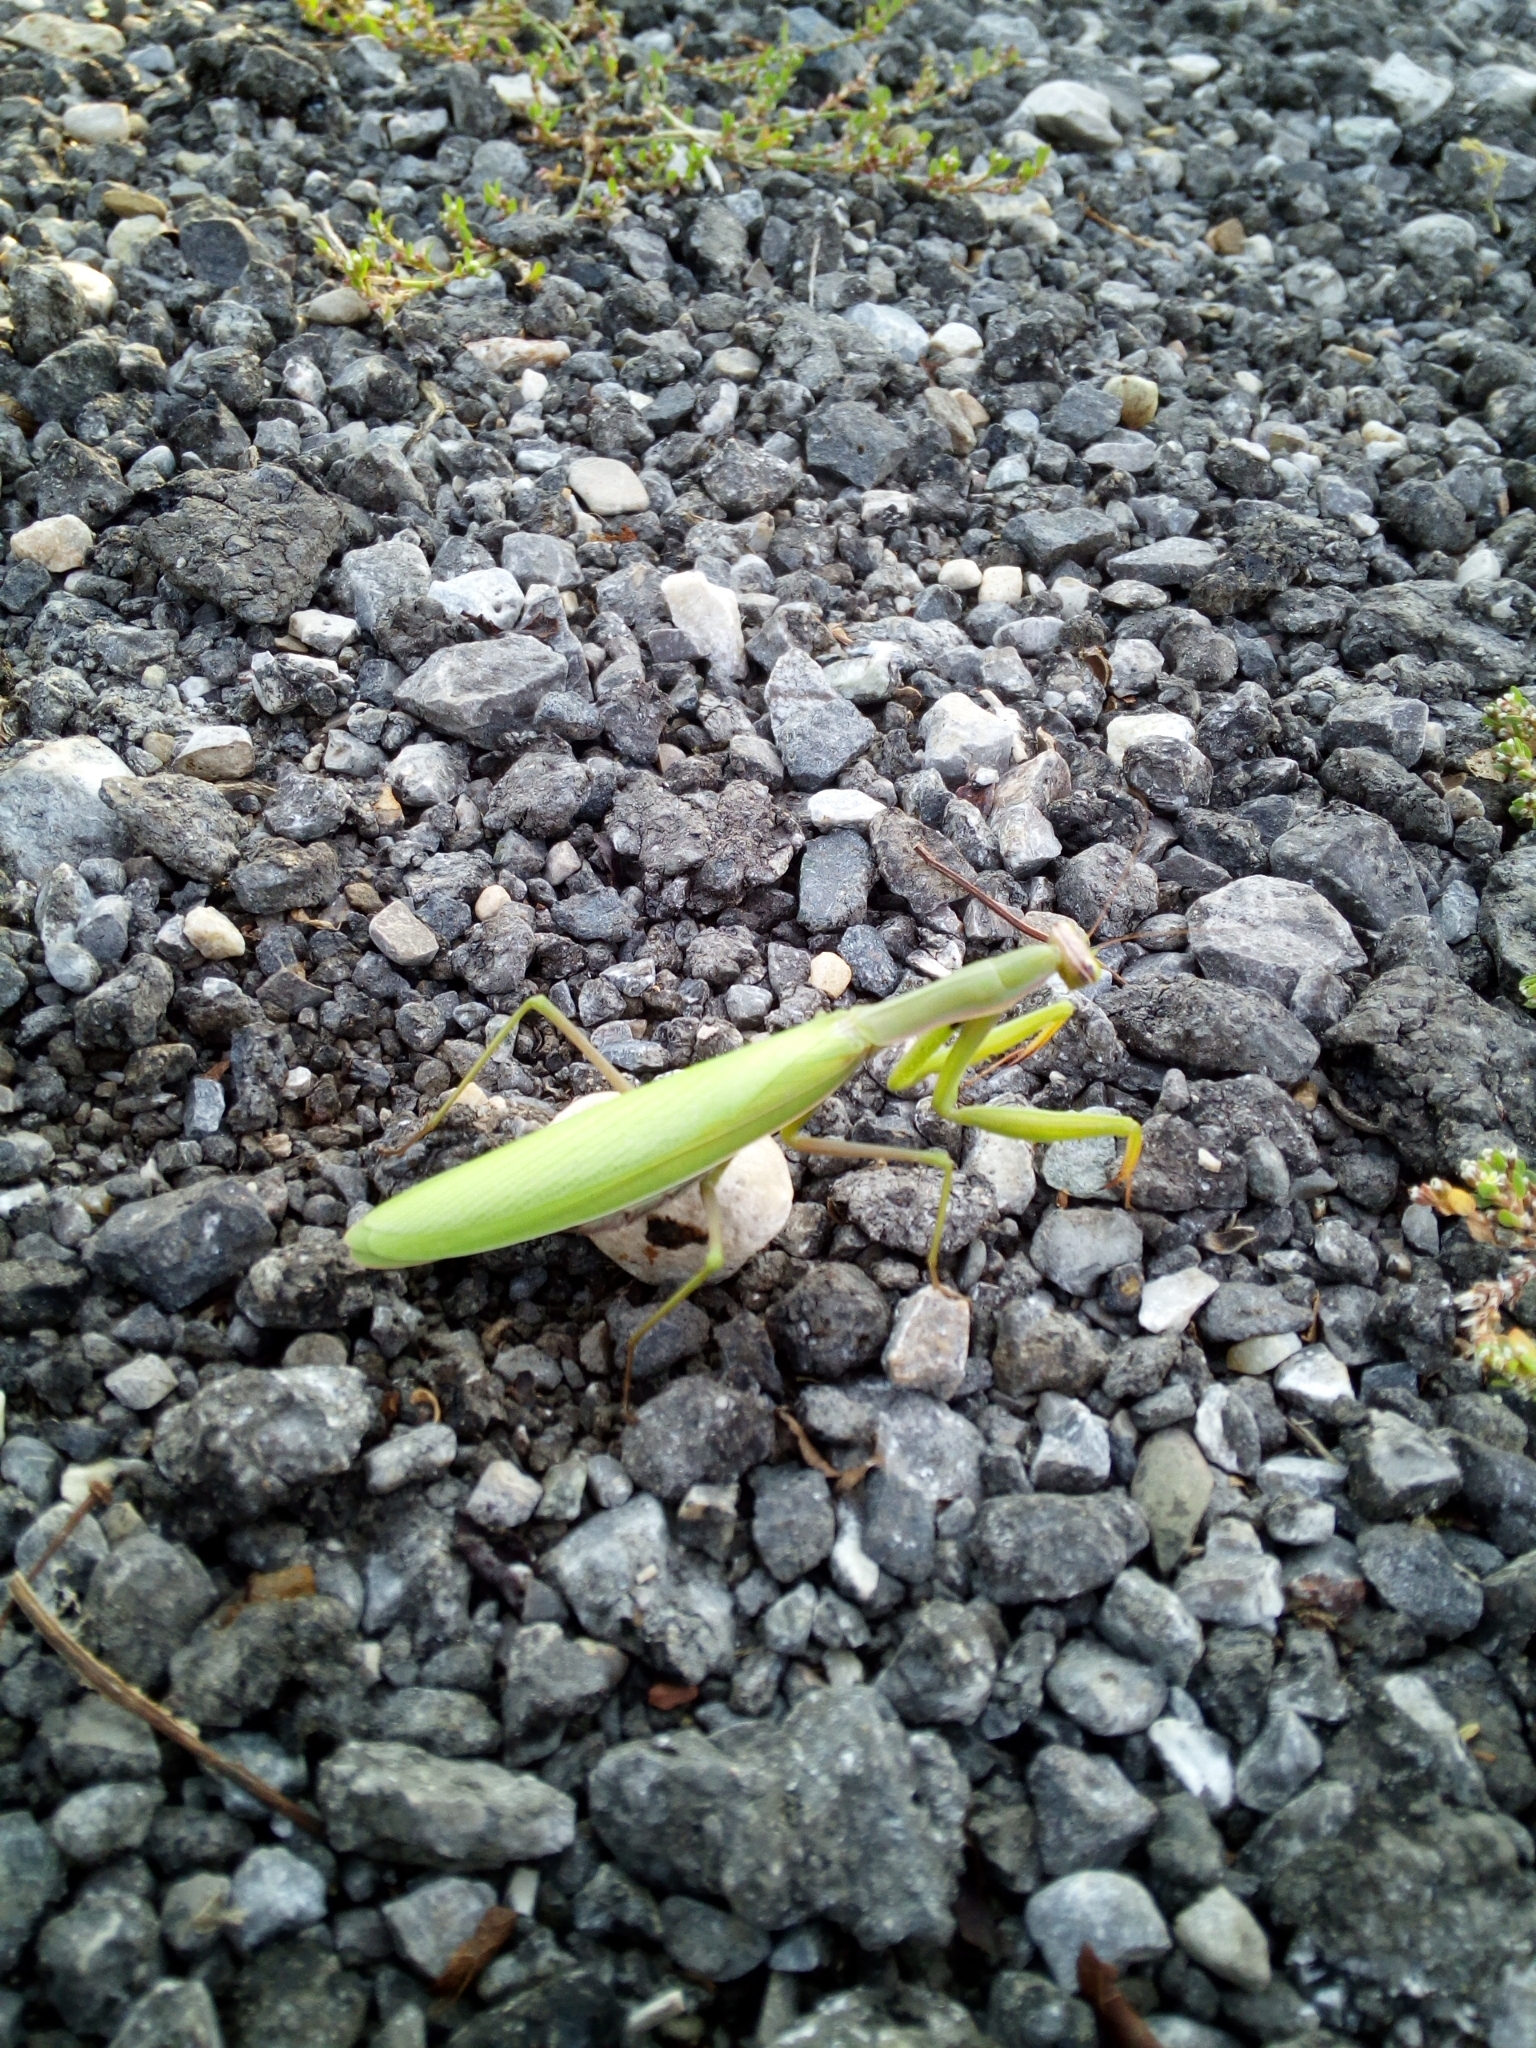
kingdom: Animalia
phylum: Arthropoda
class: Insecta
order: Mantodea
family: Mantidae
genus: Mantis
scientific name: Mantis religiosa
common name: Praying mantis
